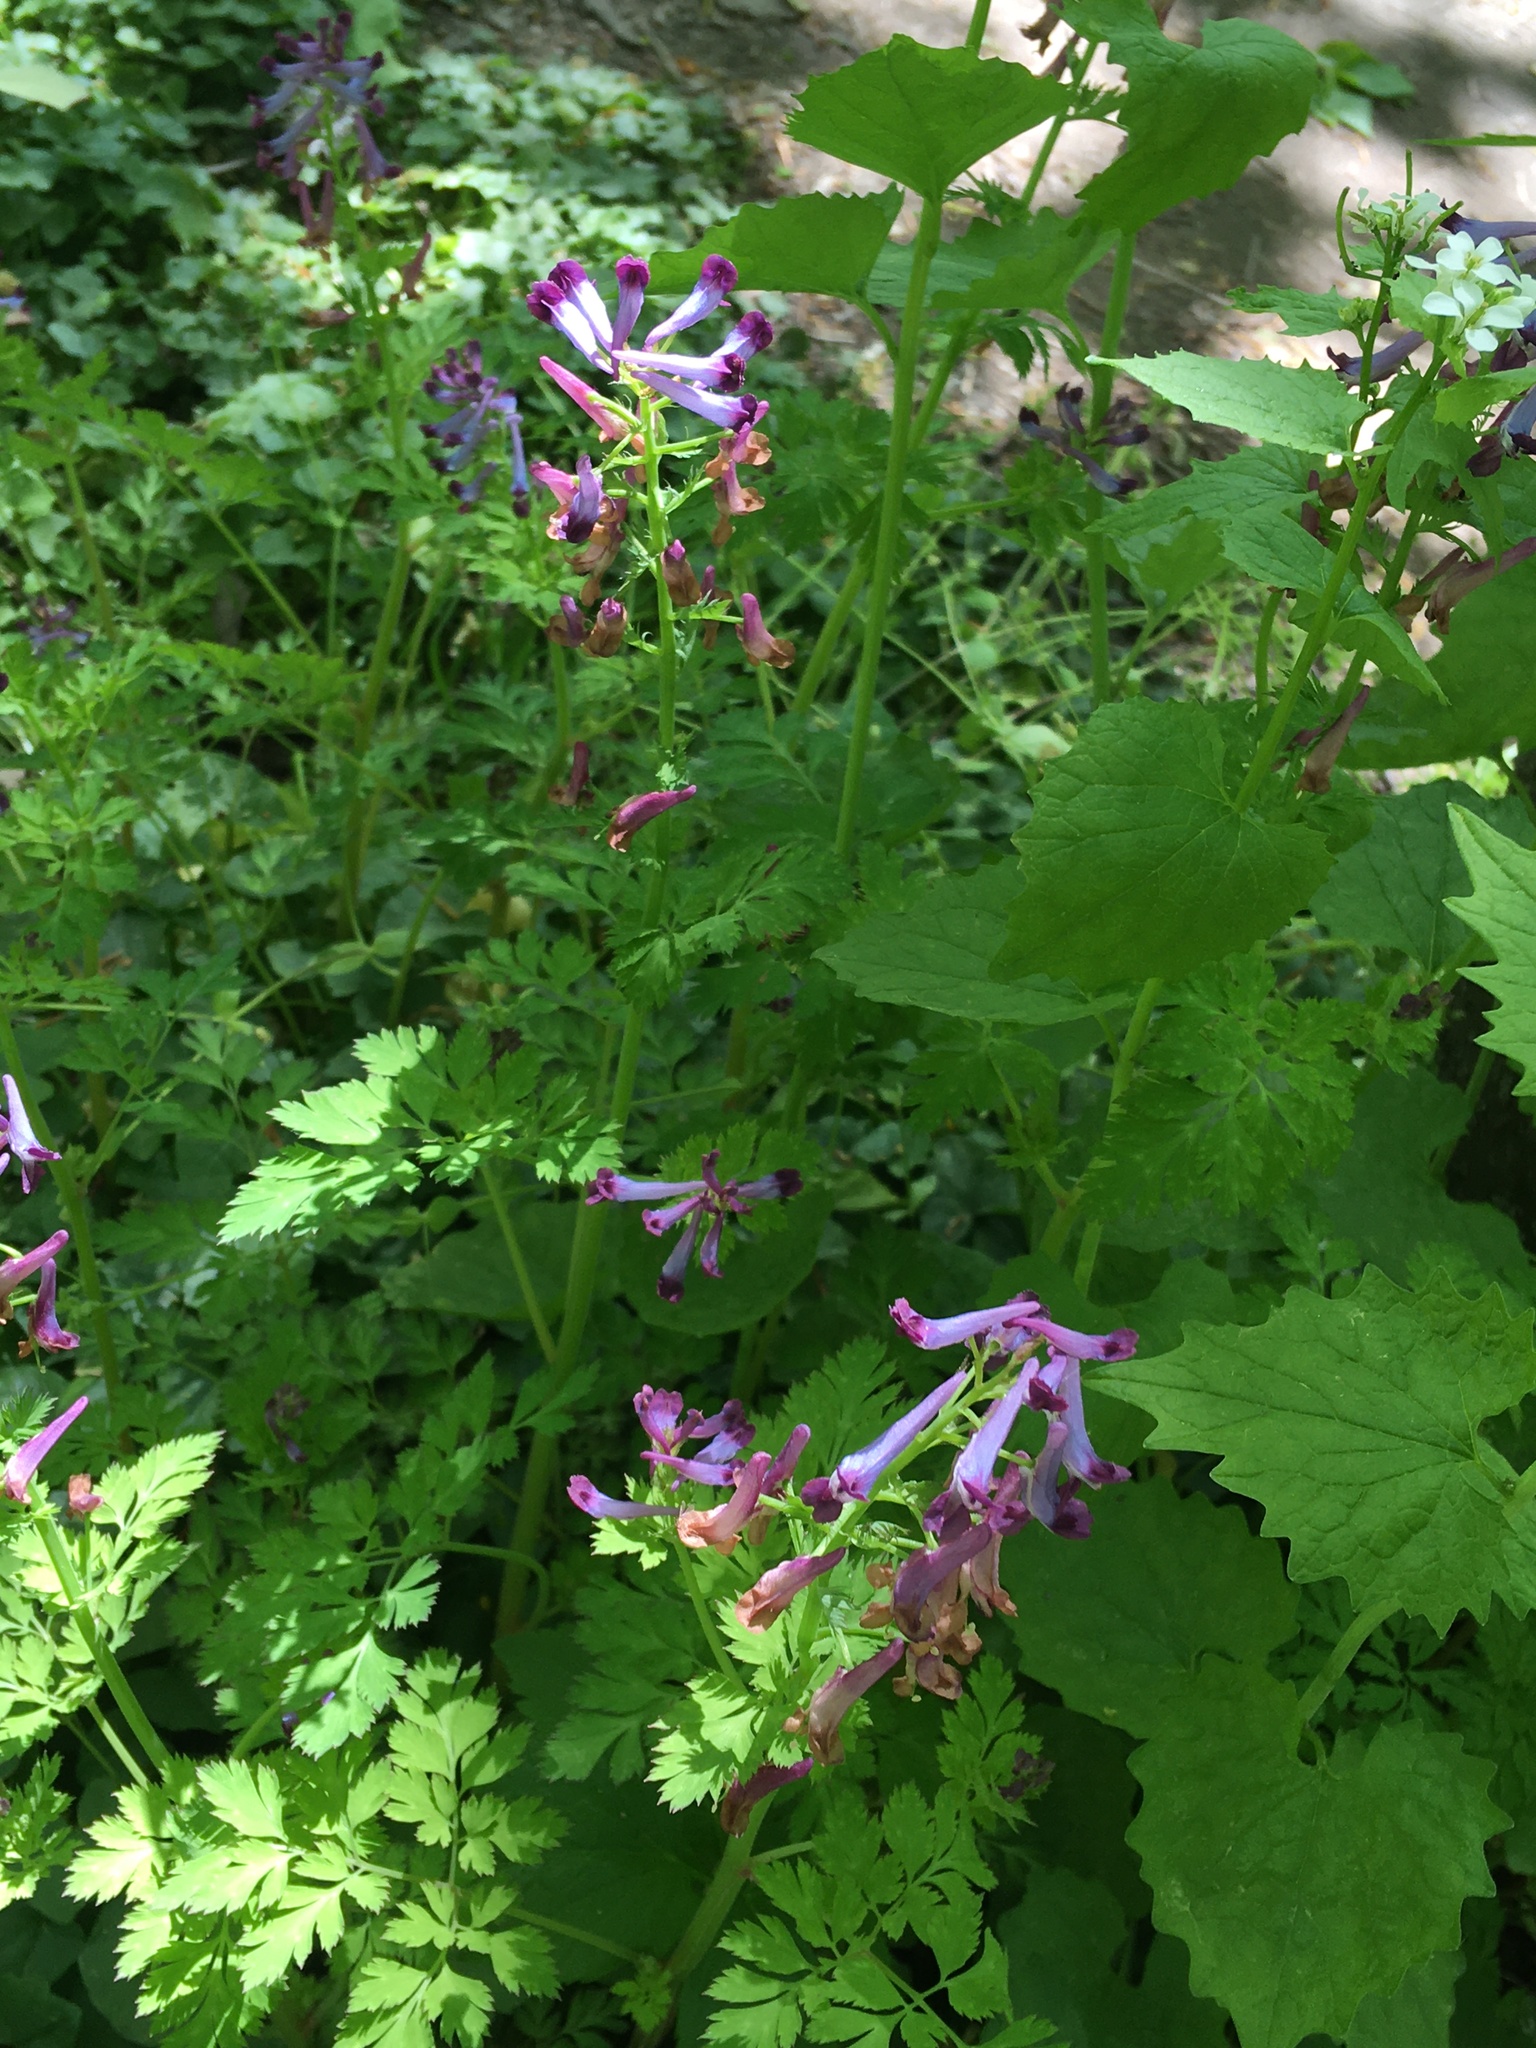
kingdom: Plantae
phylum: Tracheophyta
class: Magnoliopsida
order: Ranunculales
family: Papaveraceae
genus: Corydalis
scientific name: Corydalis incisa
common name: Incised fumewort
